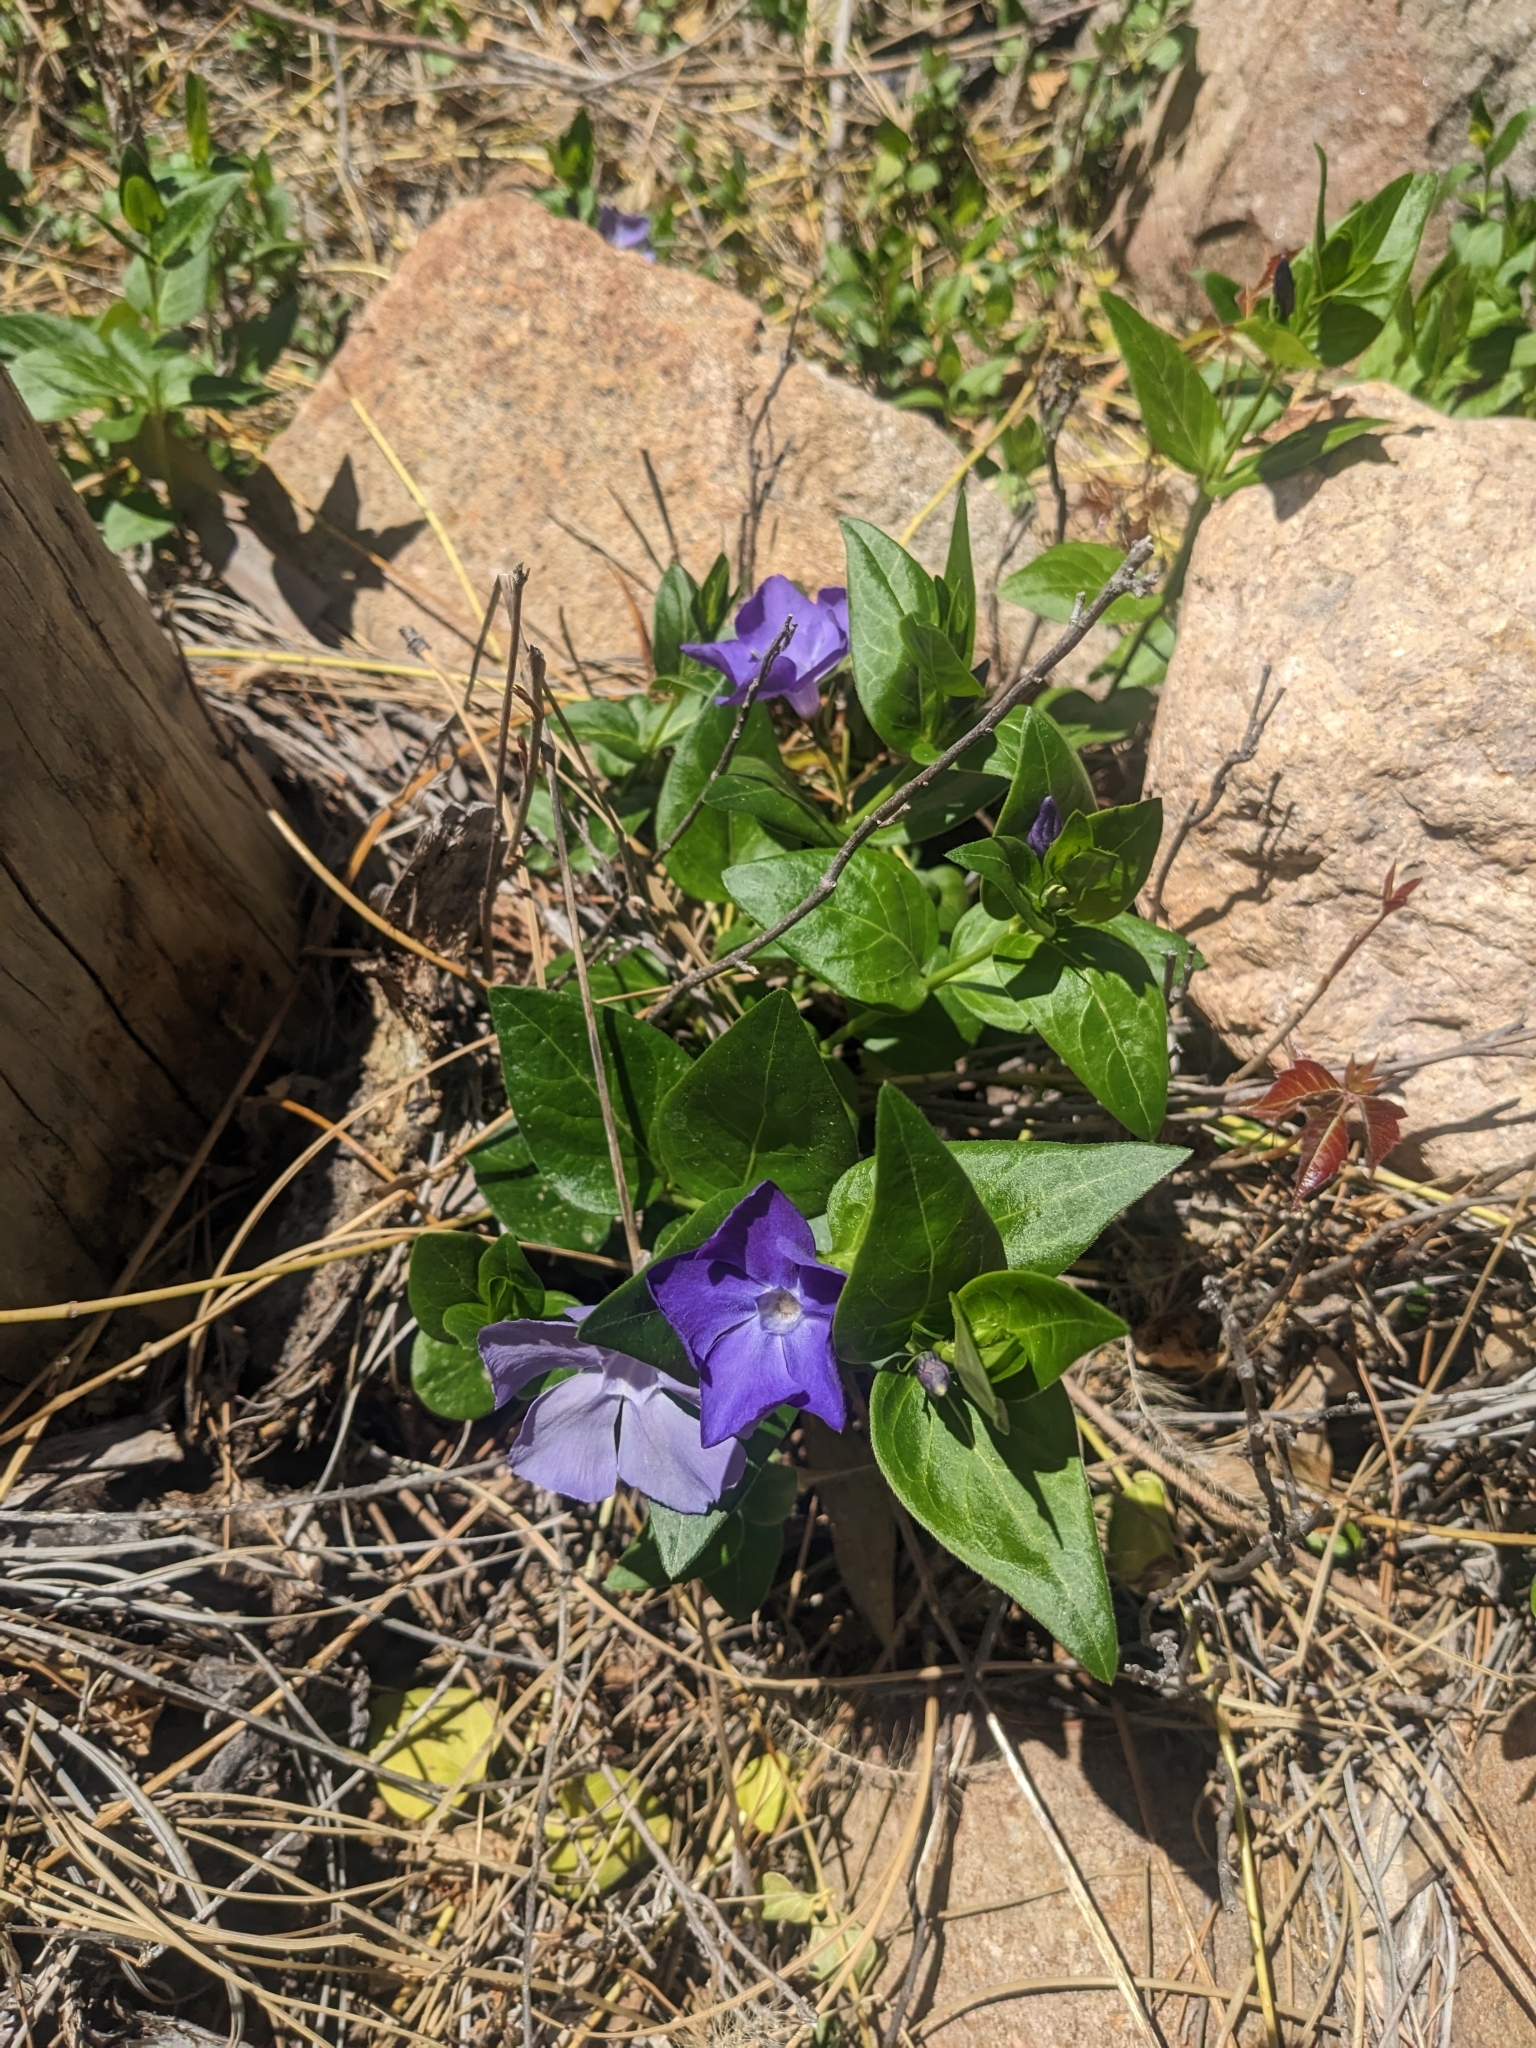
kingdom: Plantae
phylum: Tracheophyta
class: Magnoliopsida
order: Gentianales
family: Apocynaceae
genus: Vinca
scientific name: Vinca major
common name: Greater periwinkle
